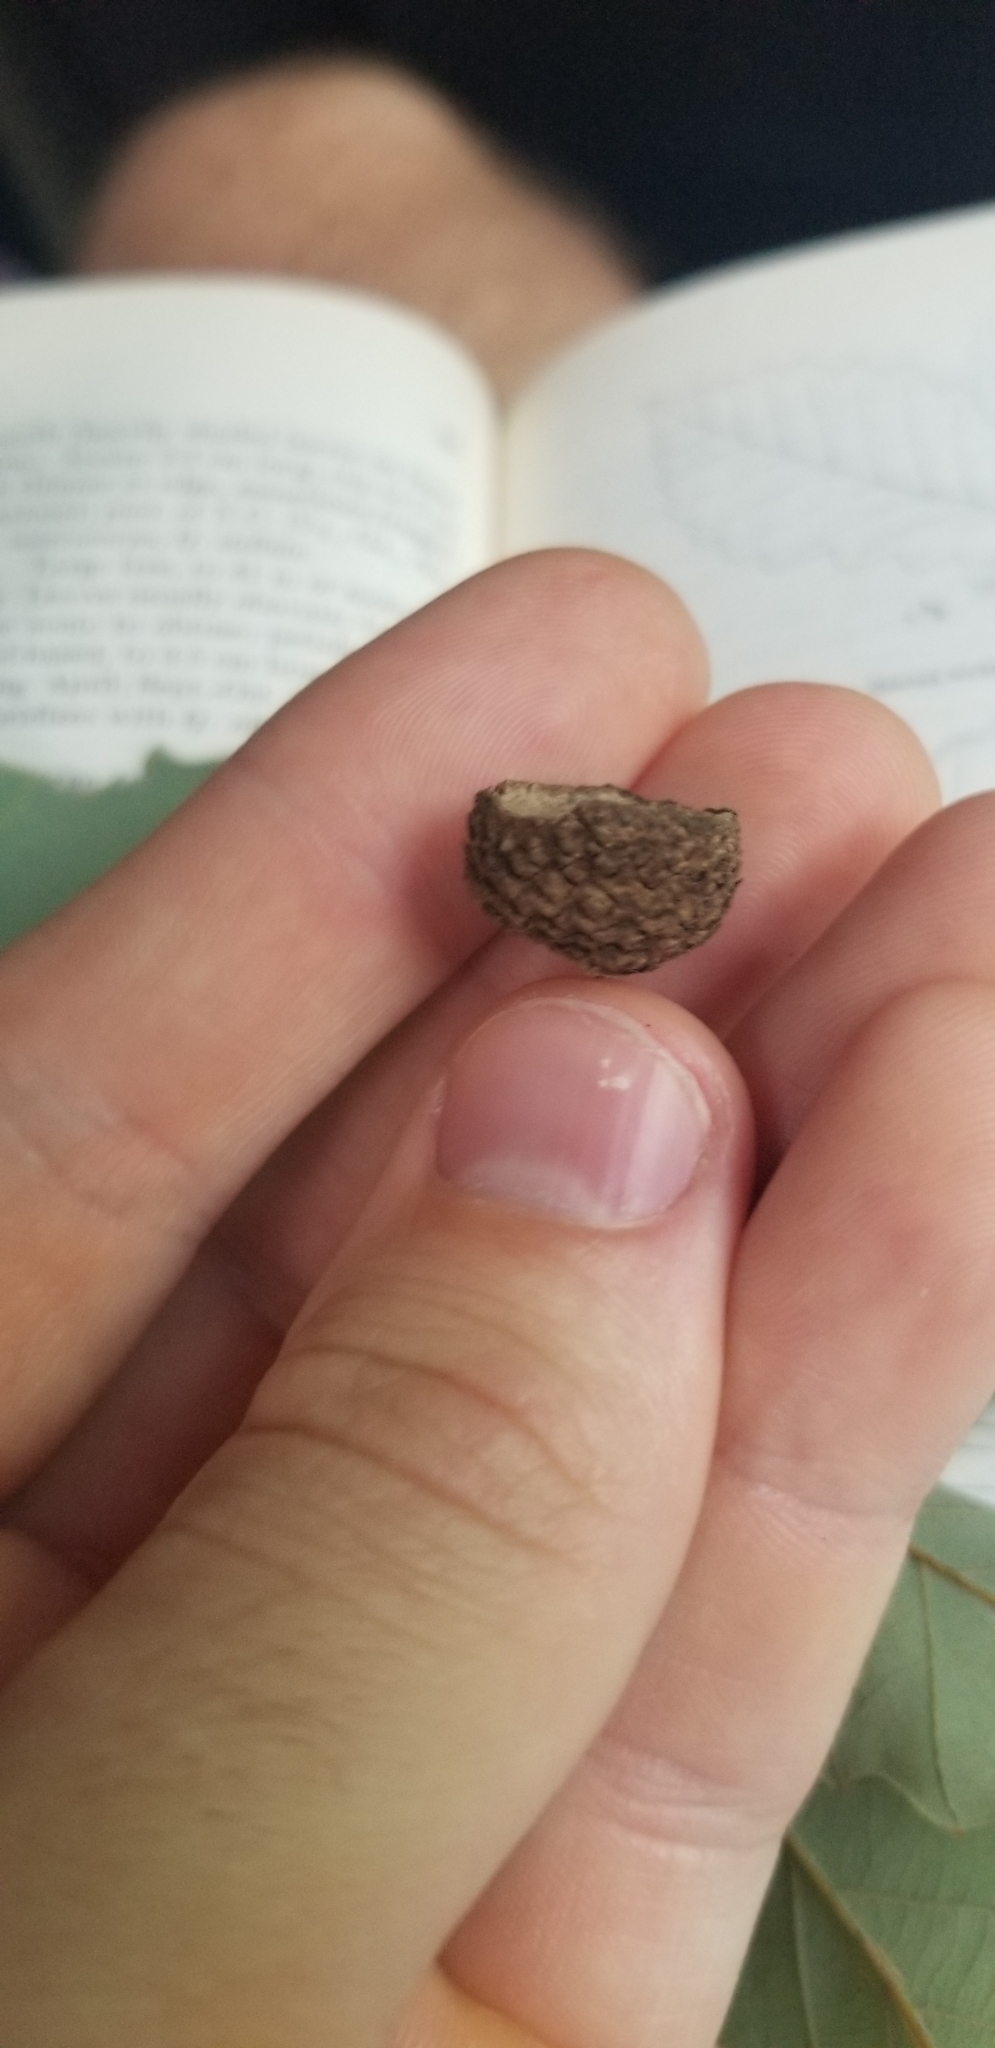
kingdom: Plantae
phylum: Tracheophyta
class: Magnoliopsida
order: Fagales
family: Fagaceae
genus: Quercus
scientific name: Quercus muehlenbergii
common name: Chinkapin oak
